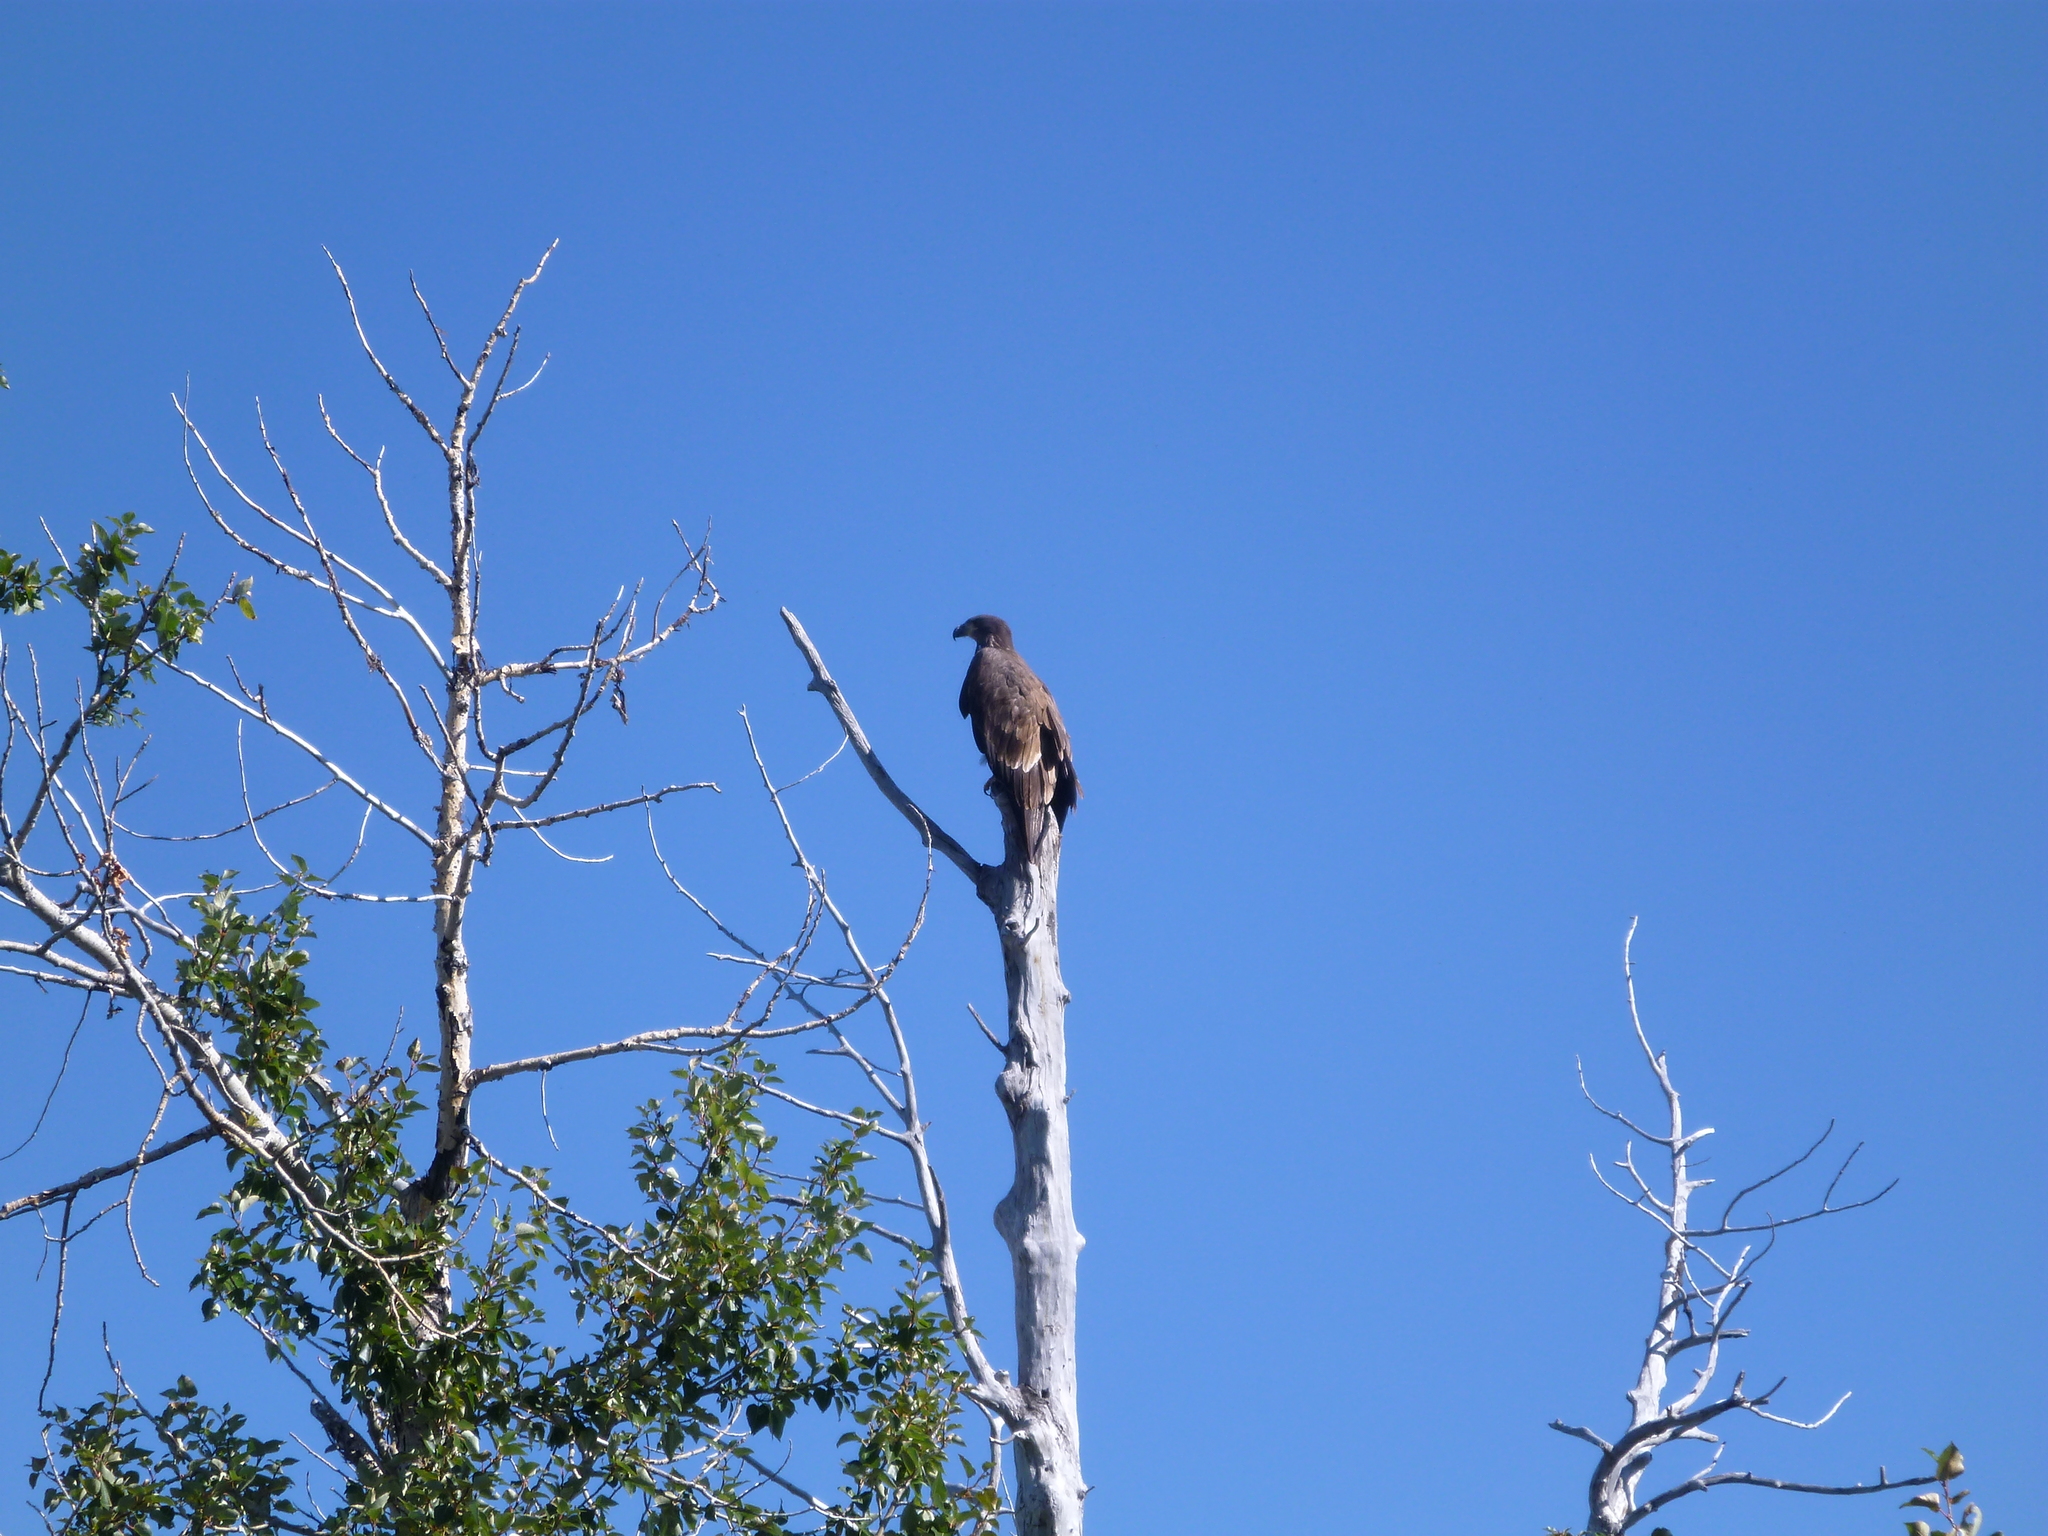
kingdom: Animalia
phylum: Chordata
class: Aves
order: Accipitriformes
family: Accipitridae
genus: Haliaeetus
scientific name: Haliaeetus leucocephalus
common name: Bald eagle
